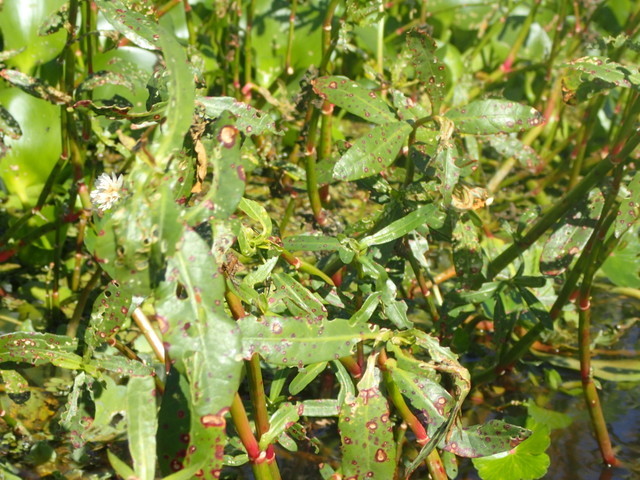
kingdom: Plantae
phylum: Tracheophyta
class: Magnoliopsida
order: Caryophyllales
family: Amaranthaceae
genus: Alternanthera
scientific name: Alternanthera philoxeroides
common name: Alligatorweed
